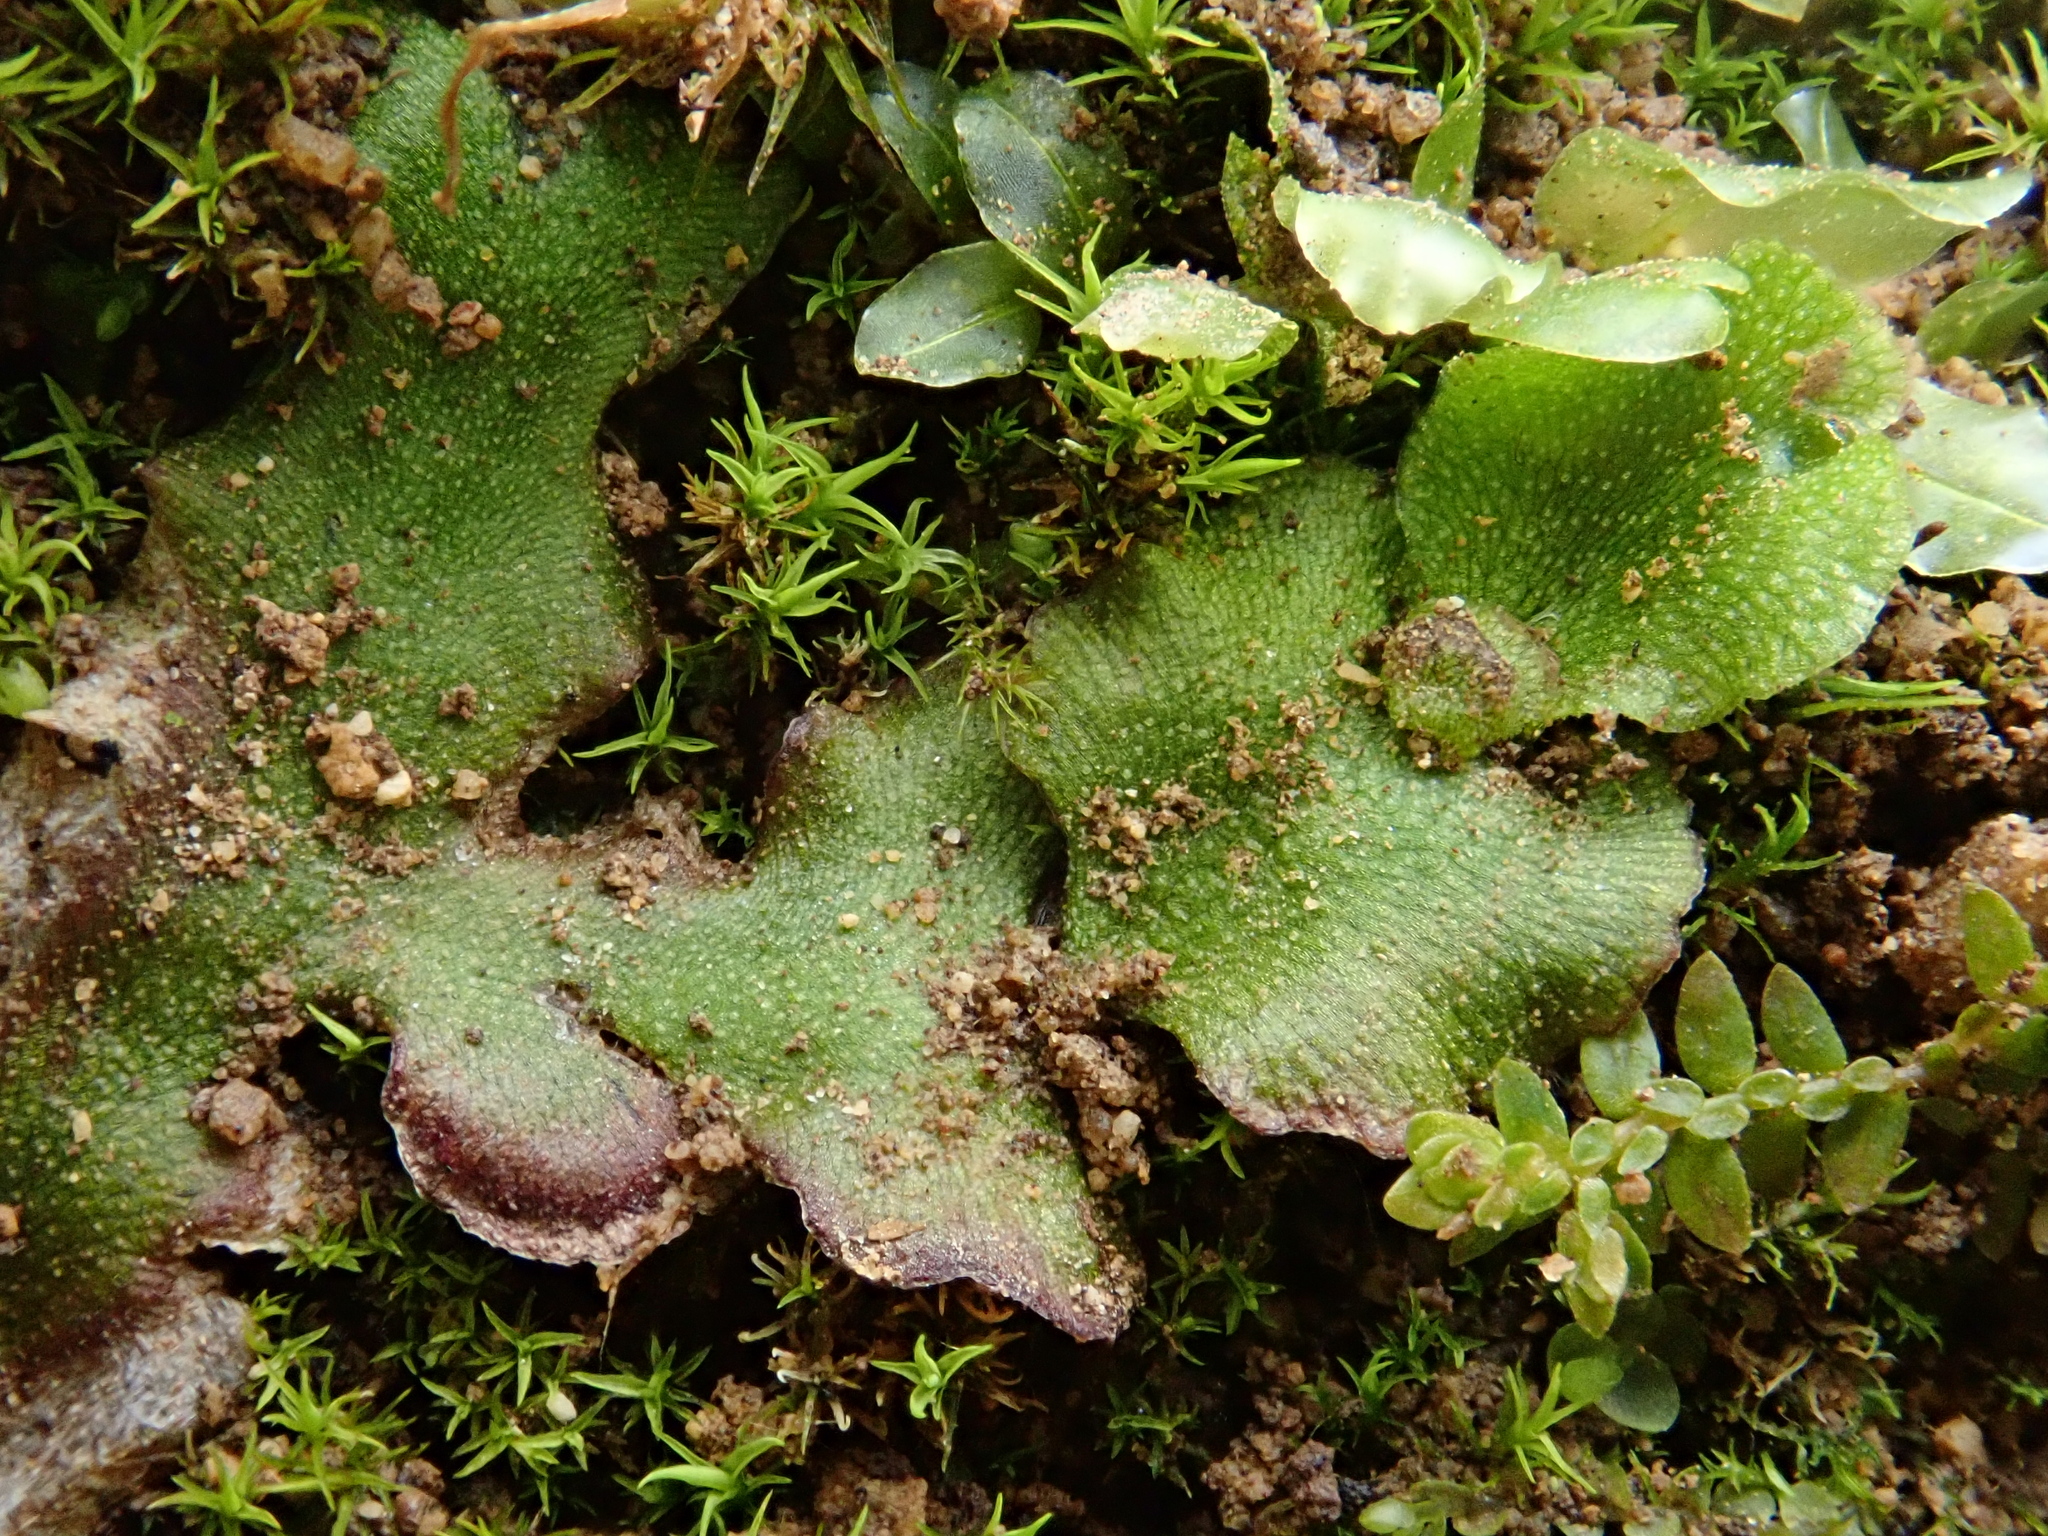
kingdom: Plantae
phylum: Marchantiophyta
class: Marchantiopsida
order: Marchantiales
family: Marchantiaceae
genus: Marchantia
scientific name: Marchantia quadrata
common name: Narrow mushroom-headed liverwort
